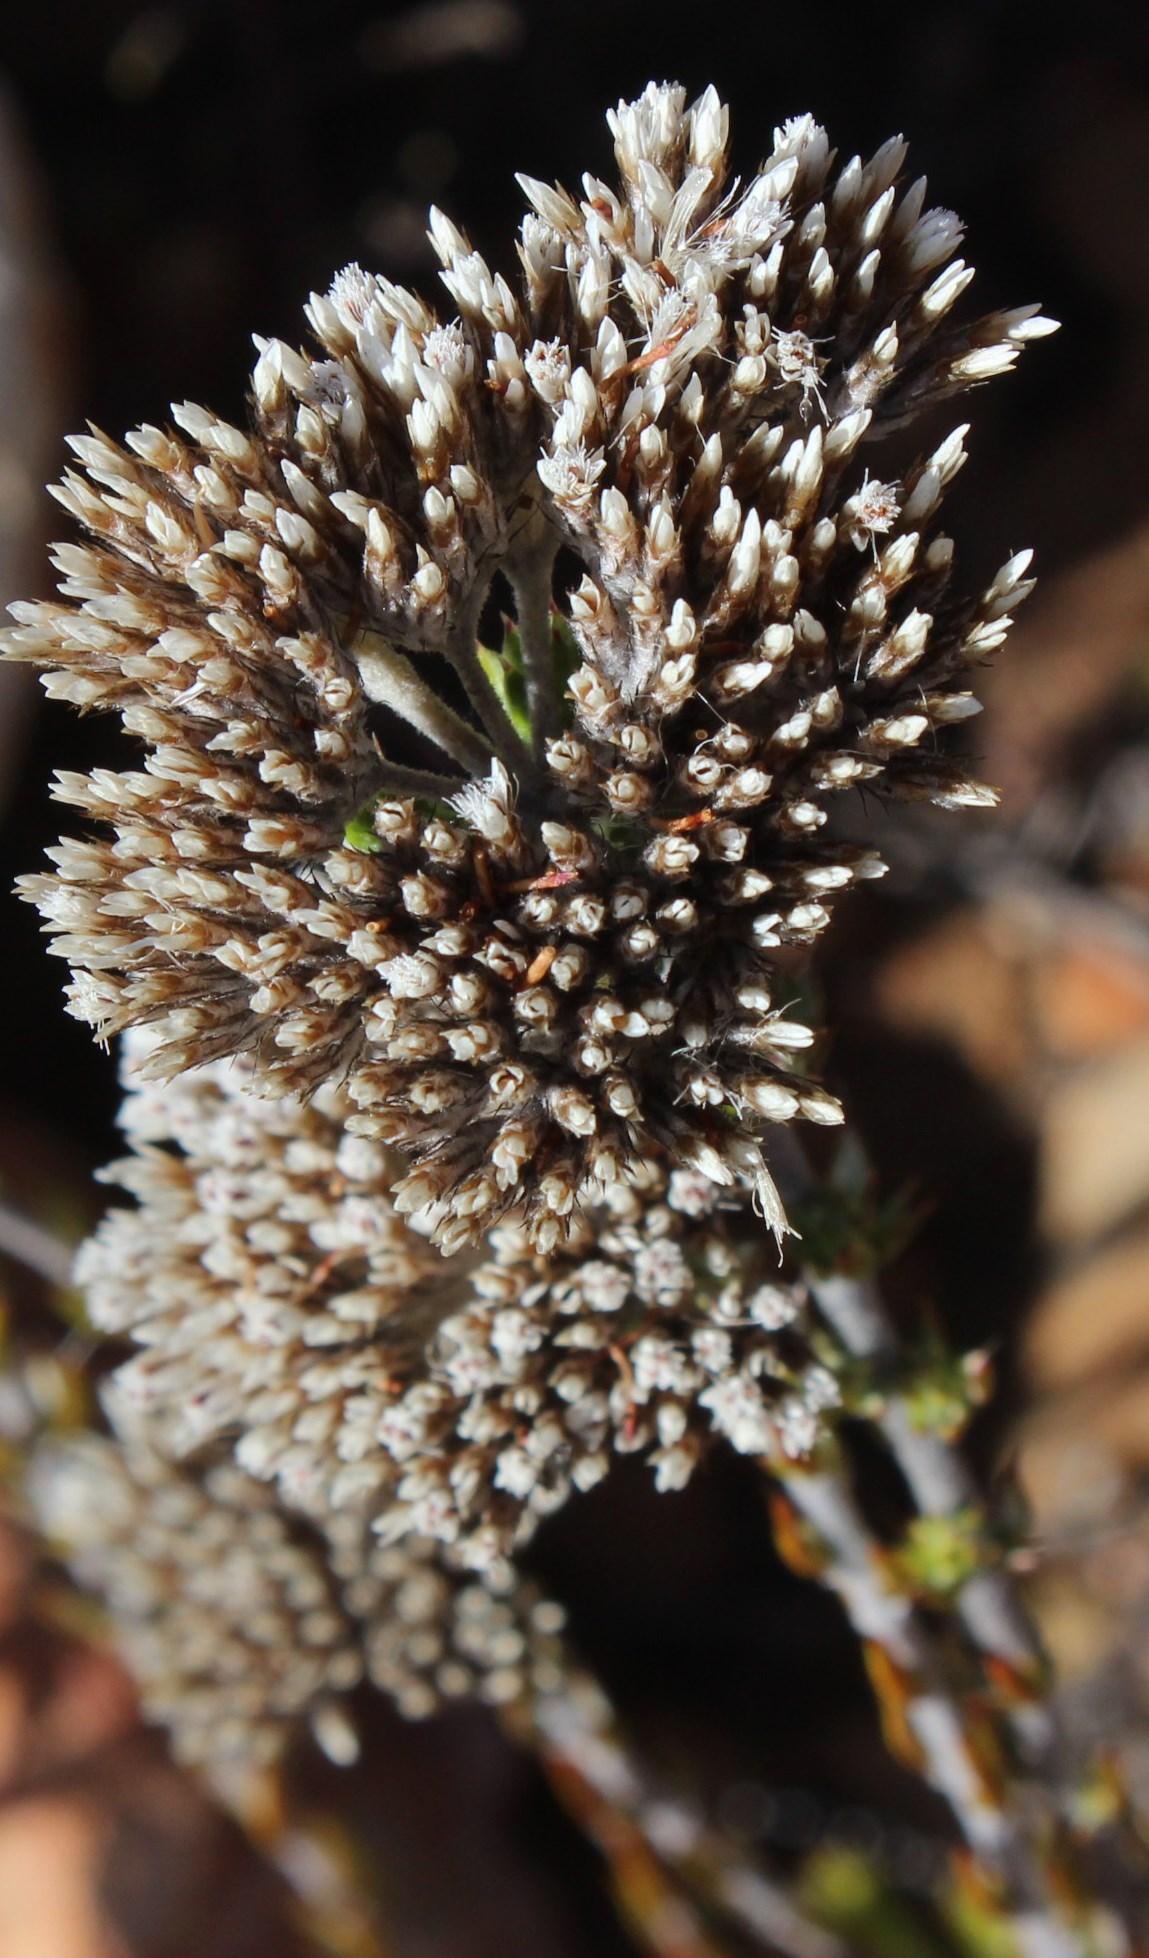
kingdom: Plantae
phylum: Tracheophyta
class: Magnoliopsida
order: Asterales
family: Asteraceae
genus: Metalasia
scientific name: Metalasia pungens
